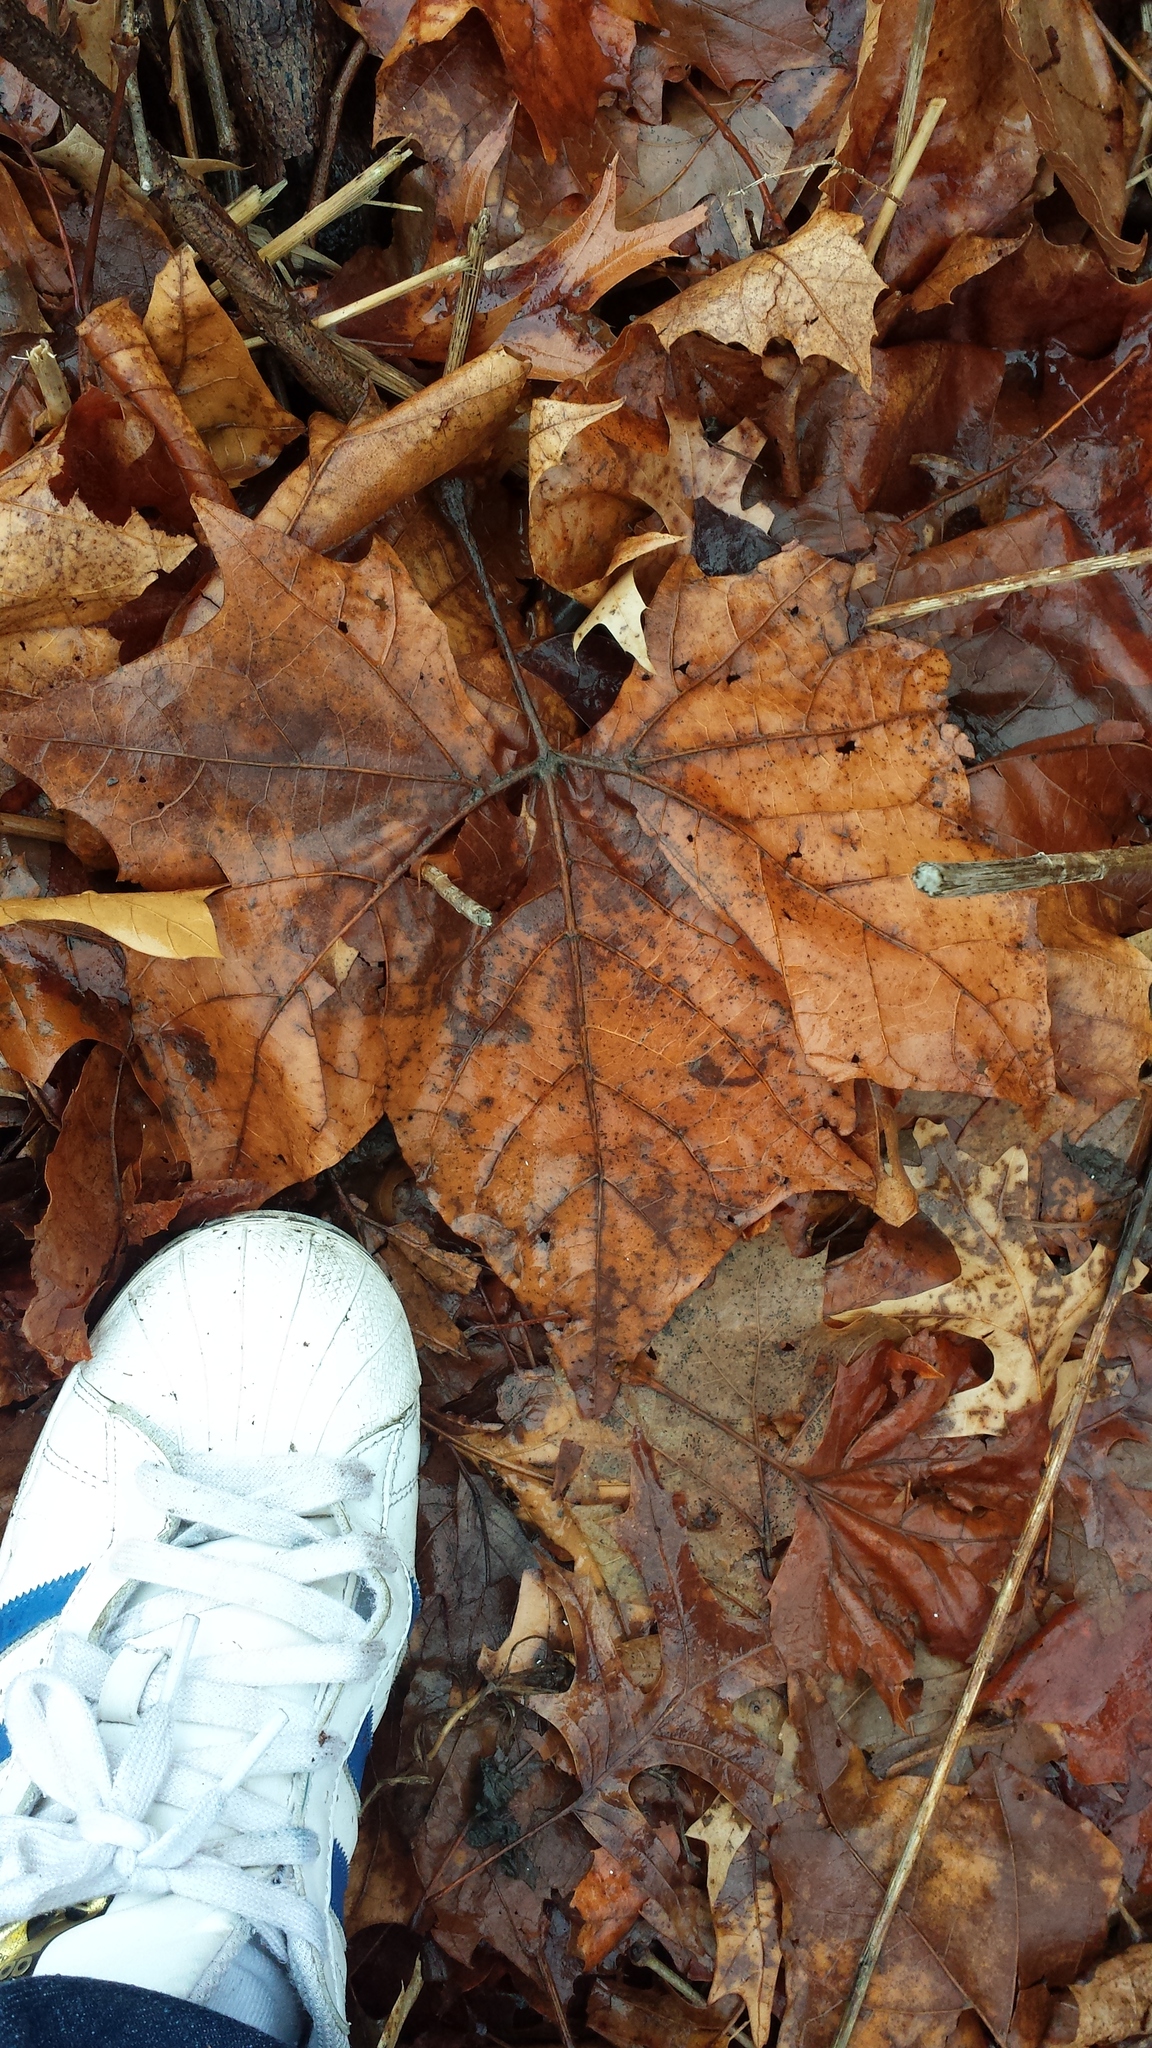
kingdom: Plantae
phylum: Tracheophyta
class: Magnoliopsida
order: Proteales
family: Platanaceae
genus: Platanus
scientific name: Platanus occidentalis
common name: American sycamore
